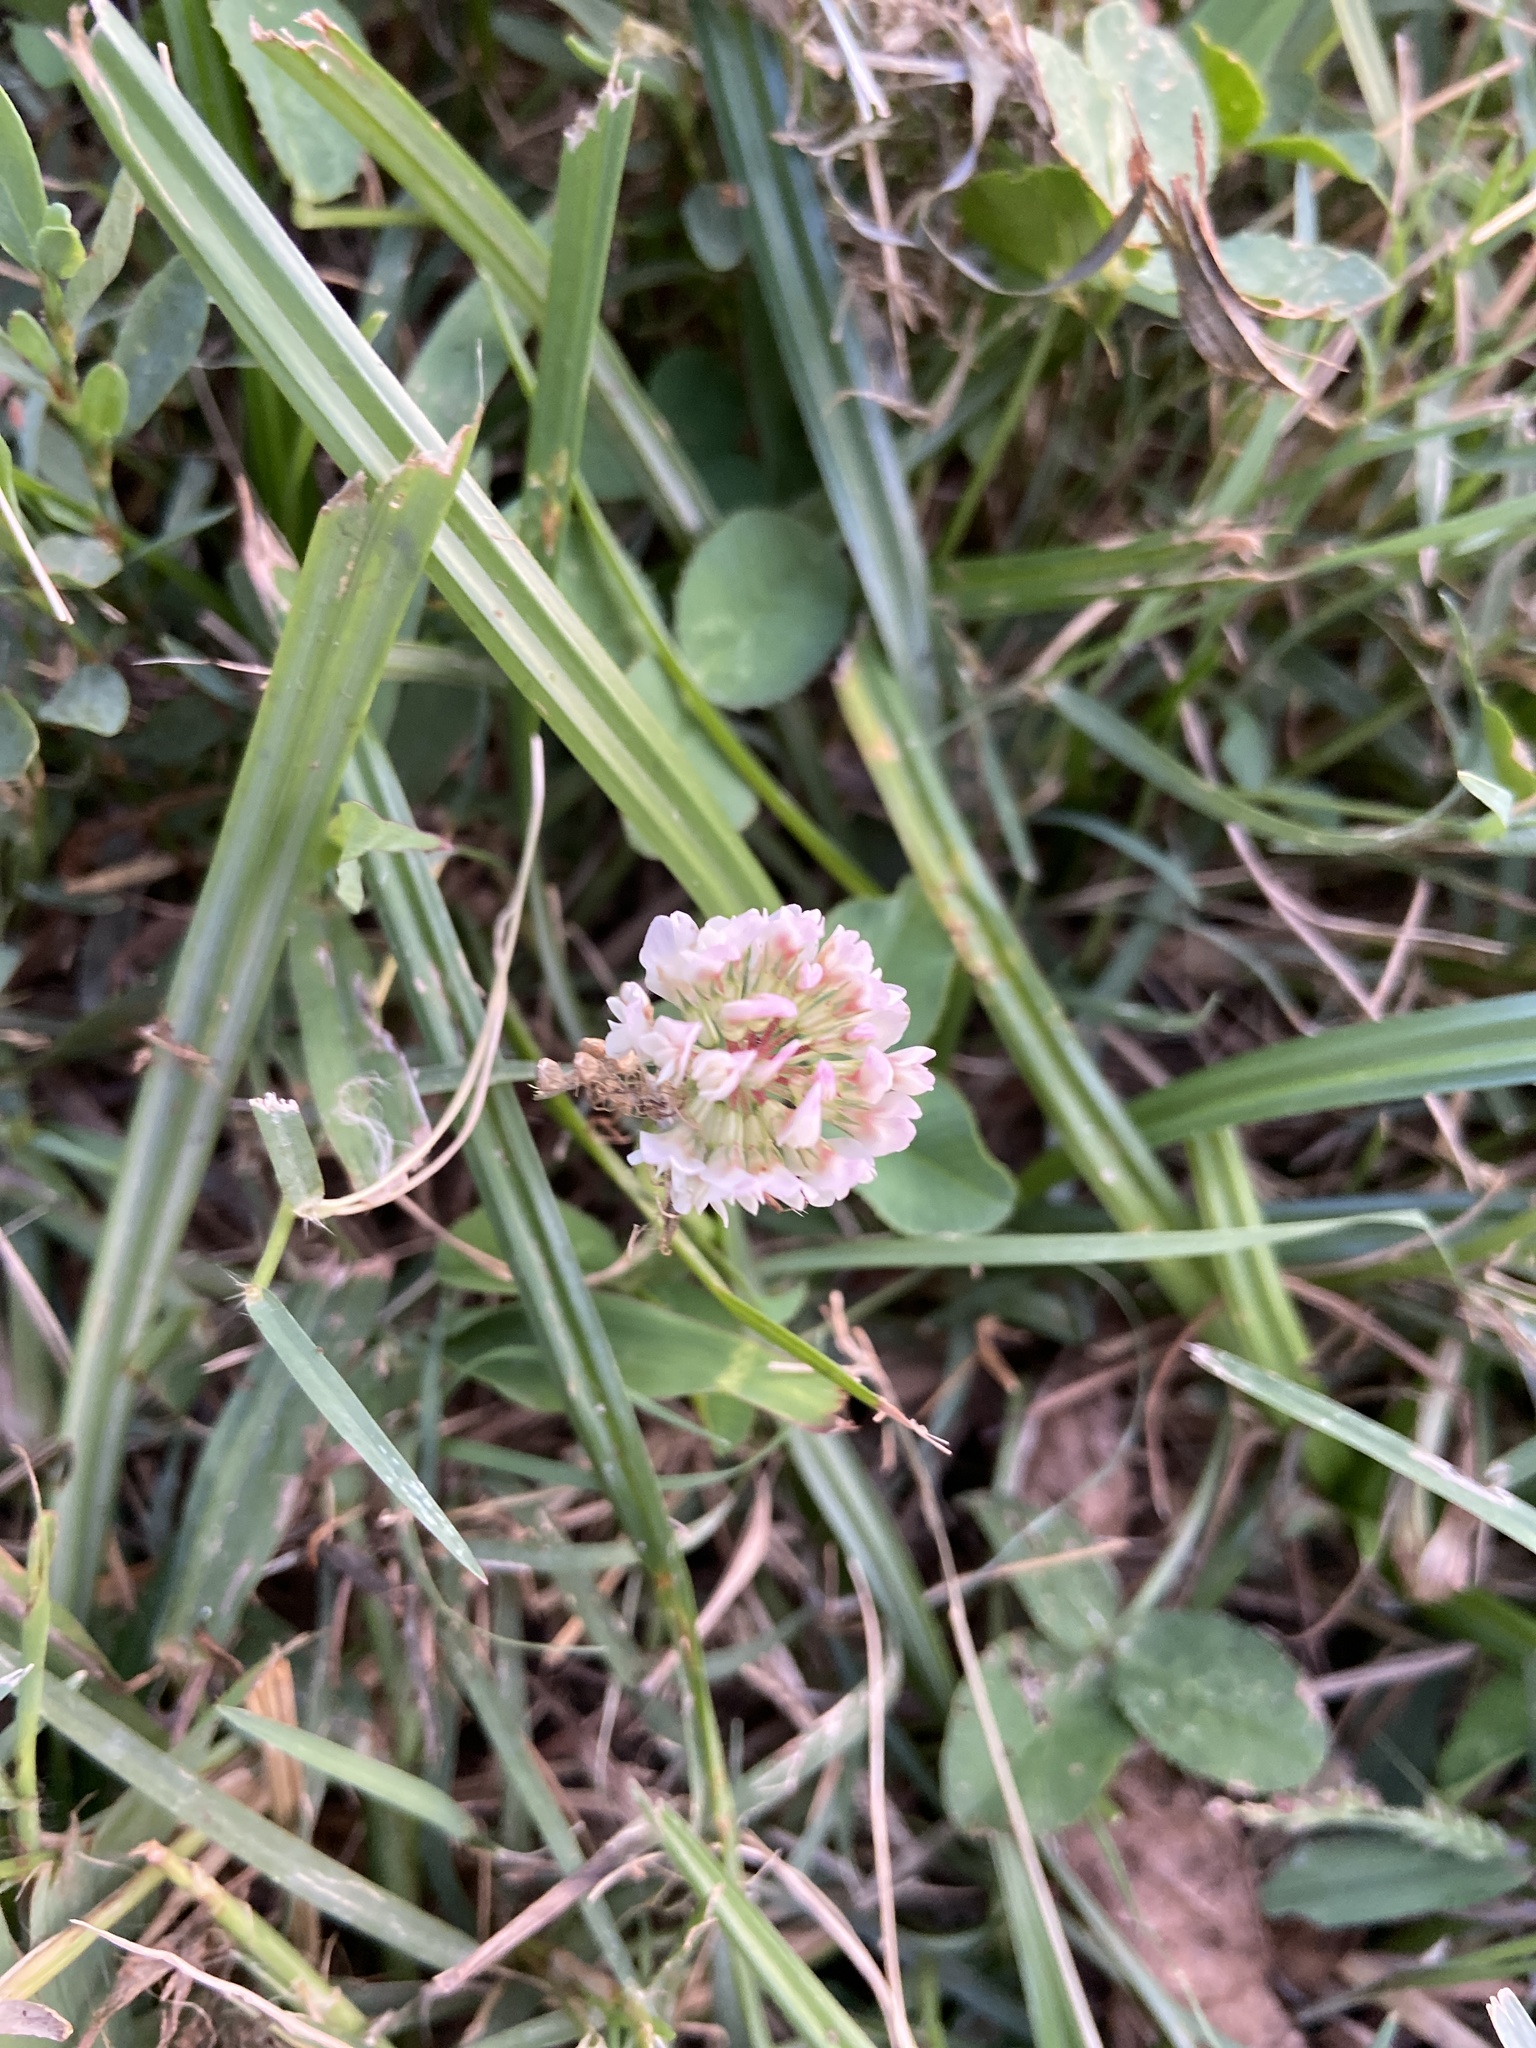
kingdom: Plantae
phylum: Tracheophyta
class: Magnoliopsida
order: Fabales
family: Fabaceae
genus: Trifolium
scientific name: Trifolium repens
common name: White clover
